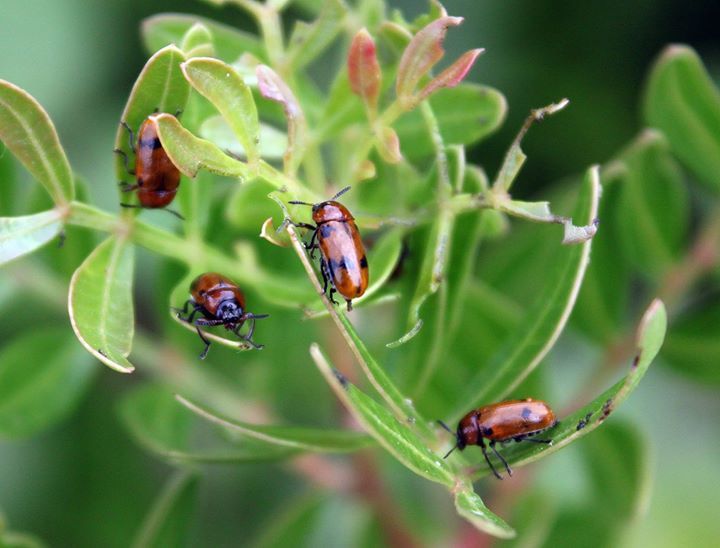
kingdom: Animalia
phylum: Arthropoda
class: Insecta
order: Coleoptera
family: Chrysomelidae
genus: Macrolenes
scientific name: Macrolenes dentipes
